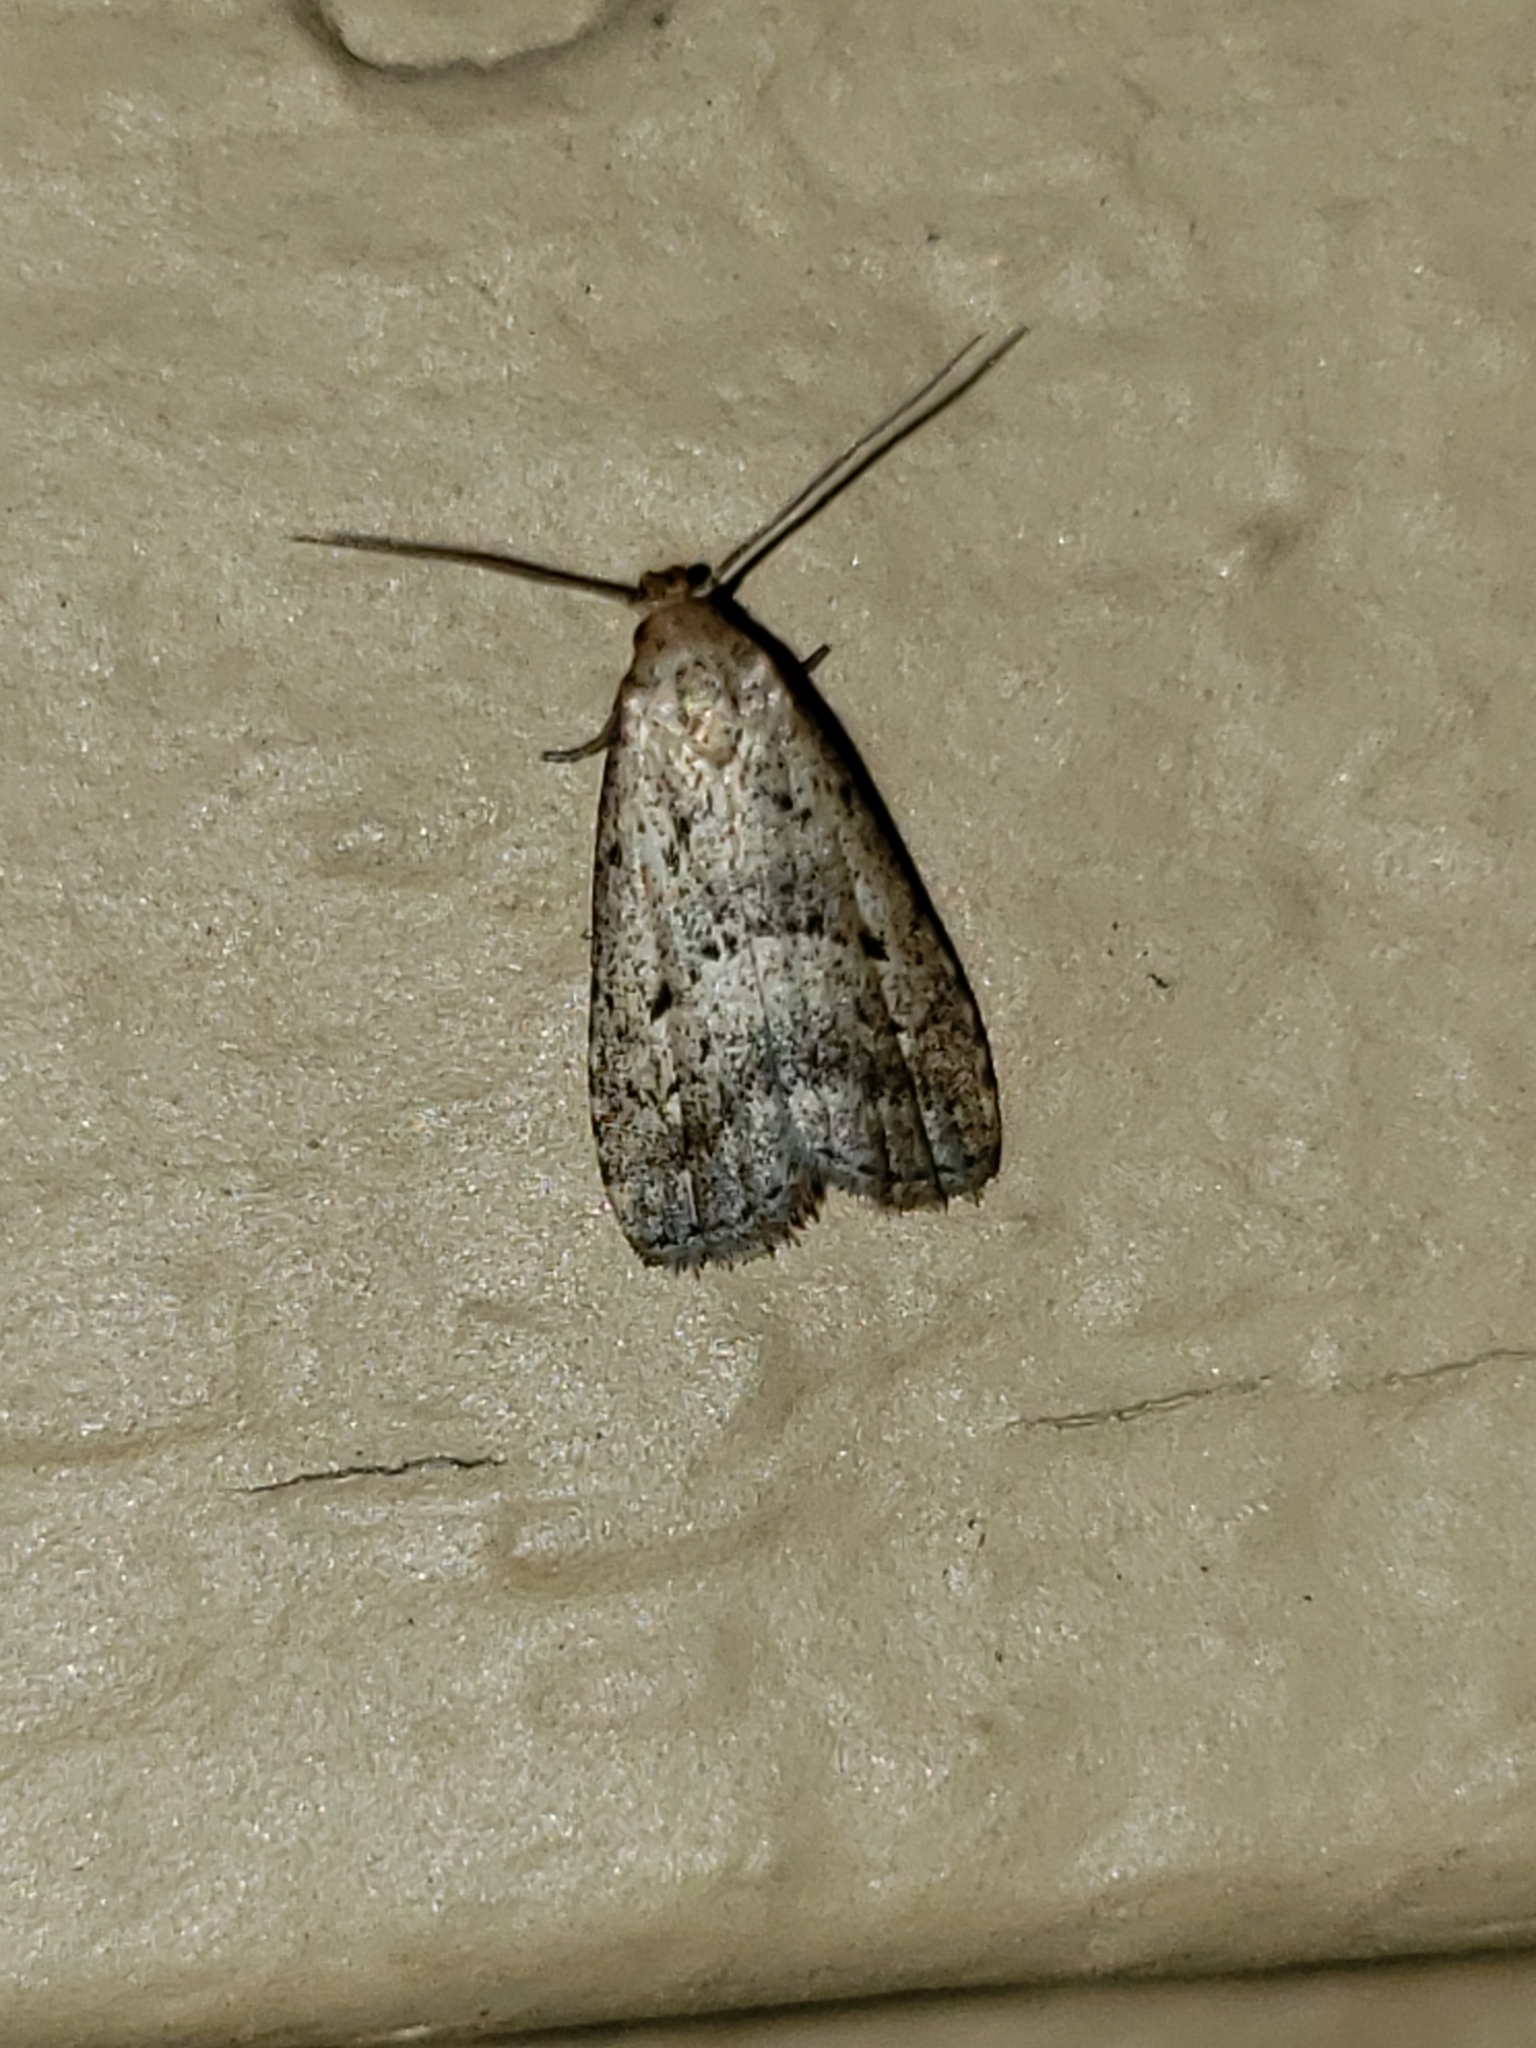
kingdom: Animalia
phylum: Arthropoda
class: Insecta
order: Lepidoptera
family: Erebidae
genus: Hypenodes
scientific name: Hypenodes fractilinea
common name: Broken-line hypenodes moth
